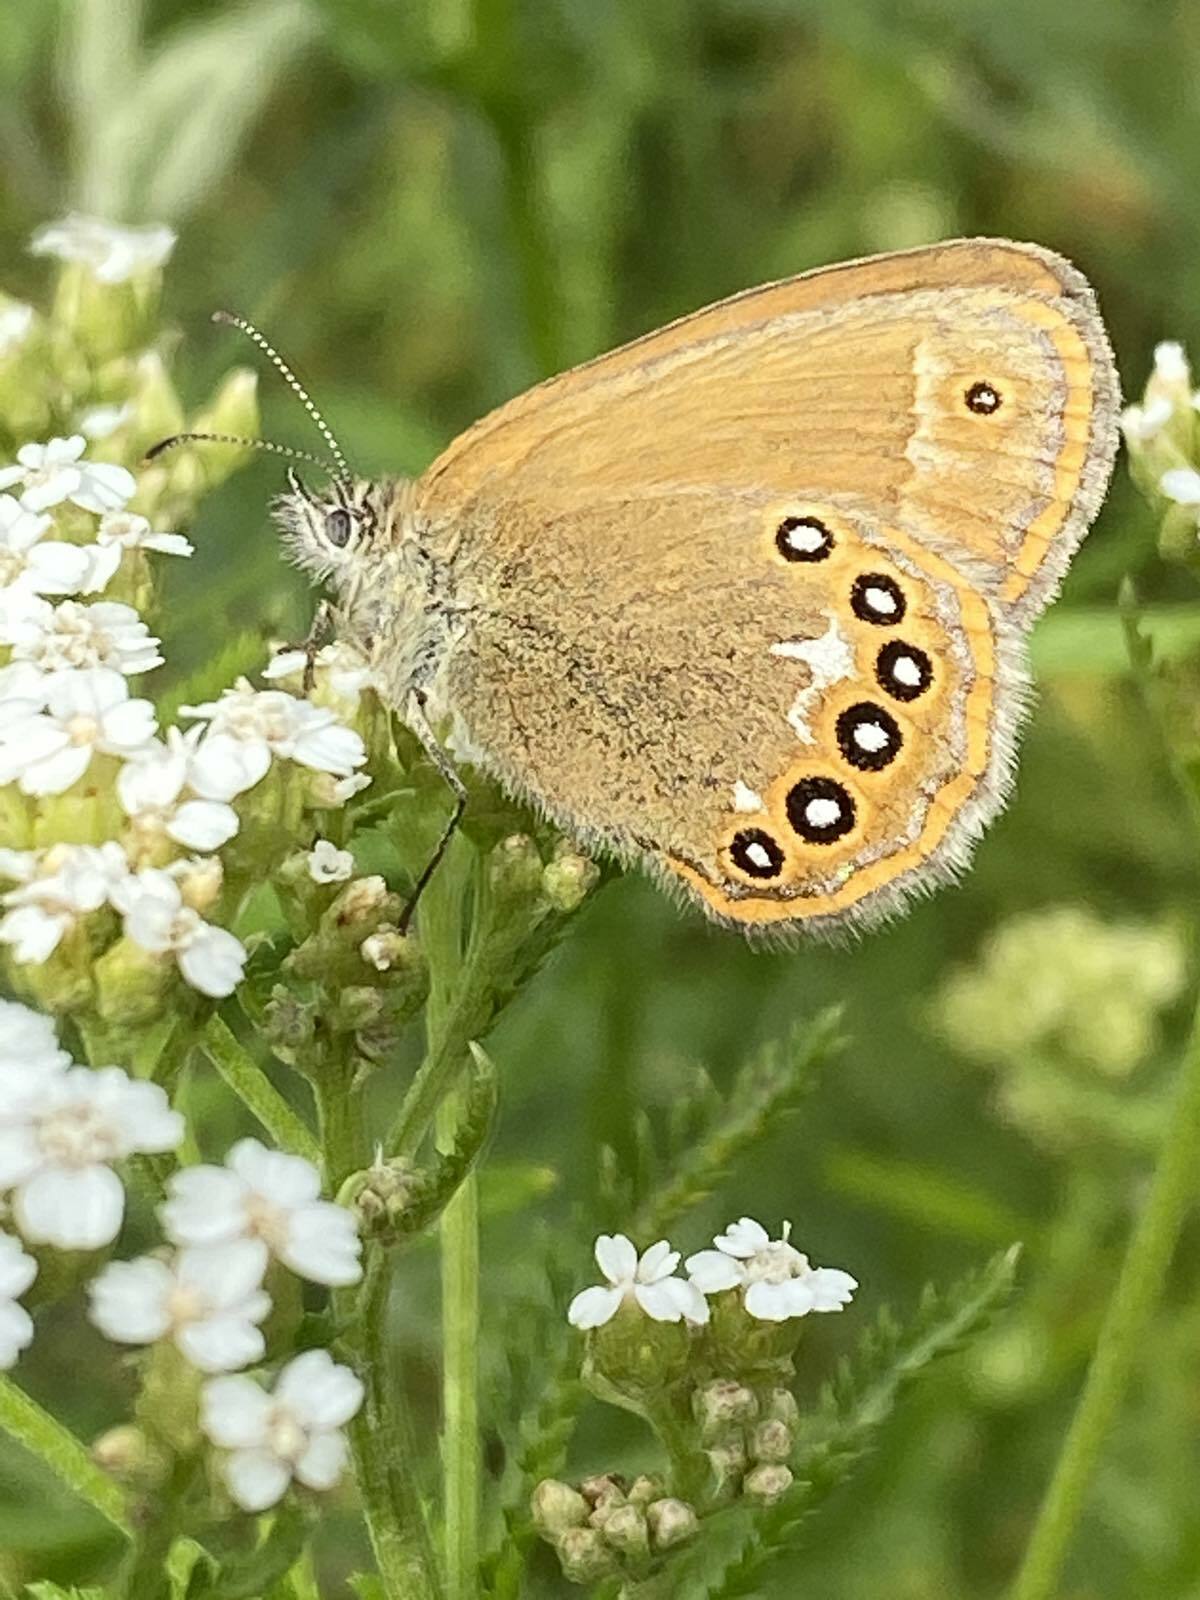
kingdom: Animalia
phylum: Arthropoda
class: Insecta
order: Lepidoptera
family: Nymphalidae
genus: Coenonympha
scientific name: Coenonympha iphis
